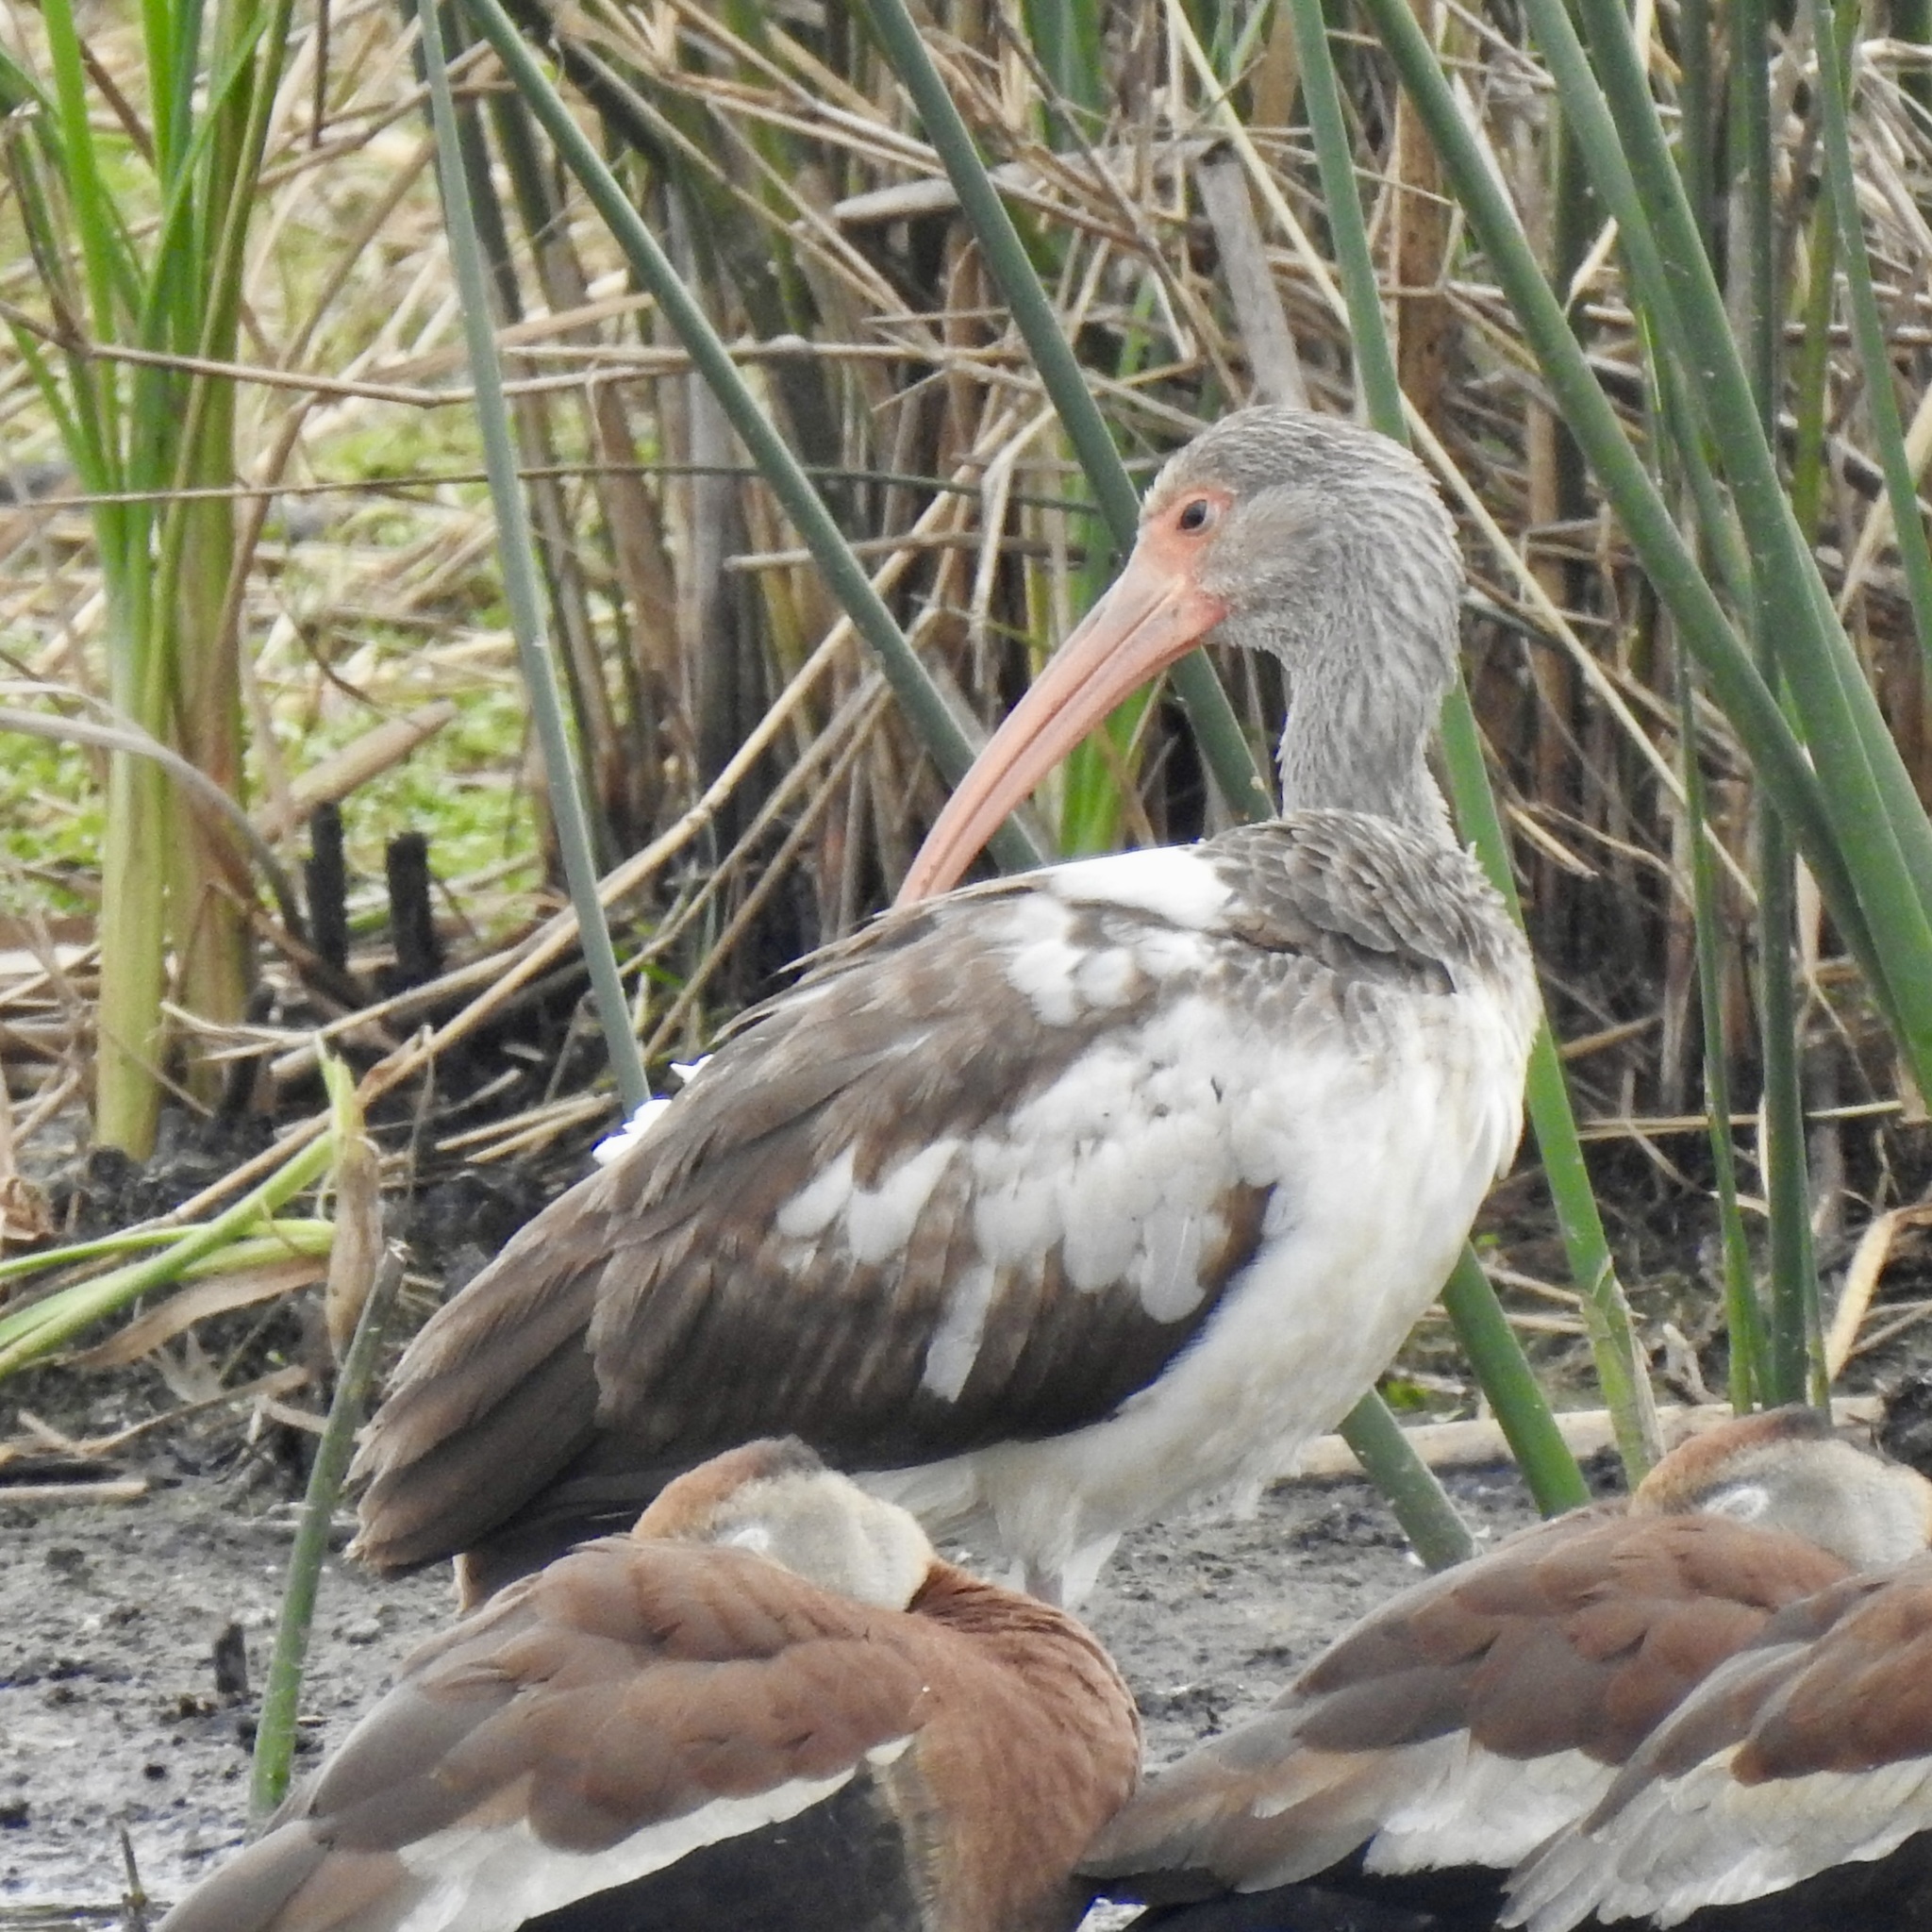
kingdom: Animalia
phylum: Chordata
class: Aves
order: Pelecaniformes
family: Threskiornithidae
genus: Eudocimus
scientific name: Eudocimus albus
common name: White ibis
